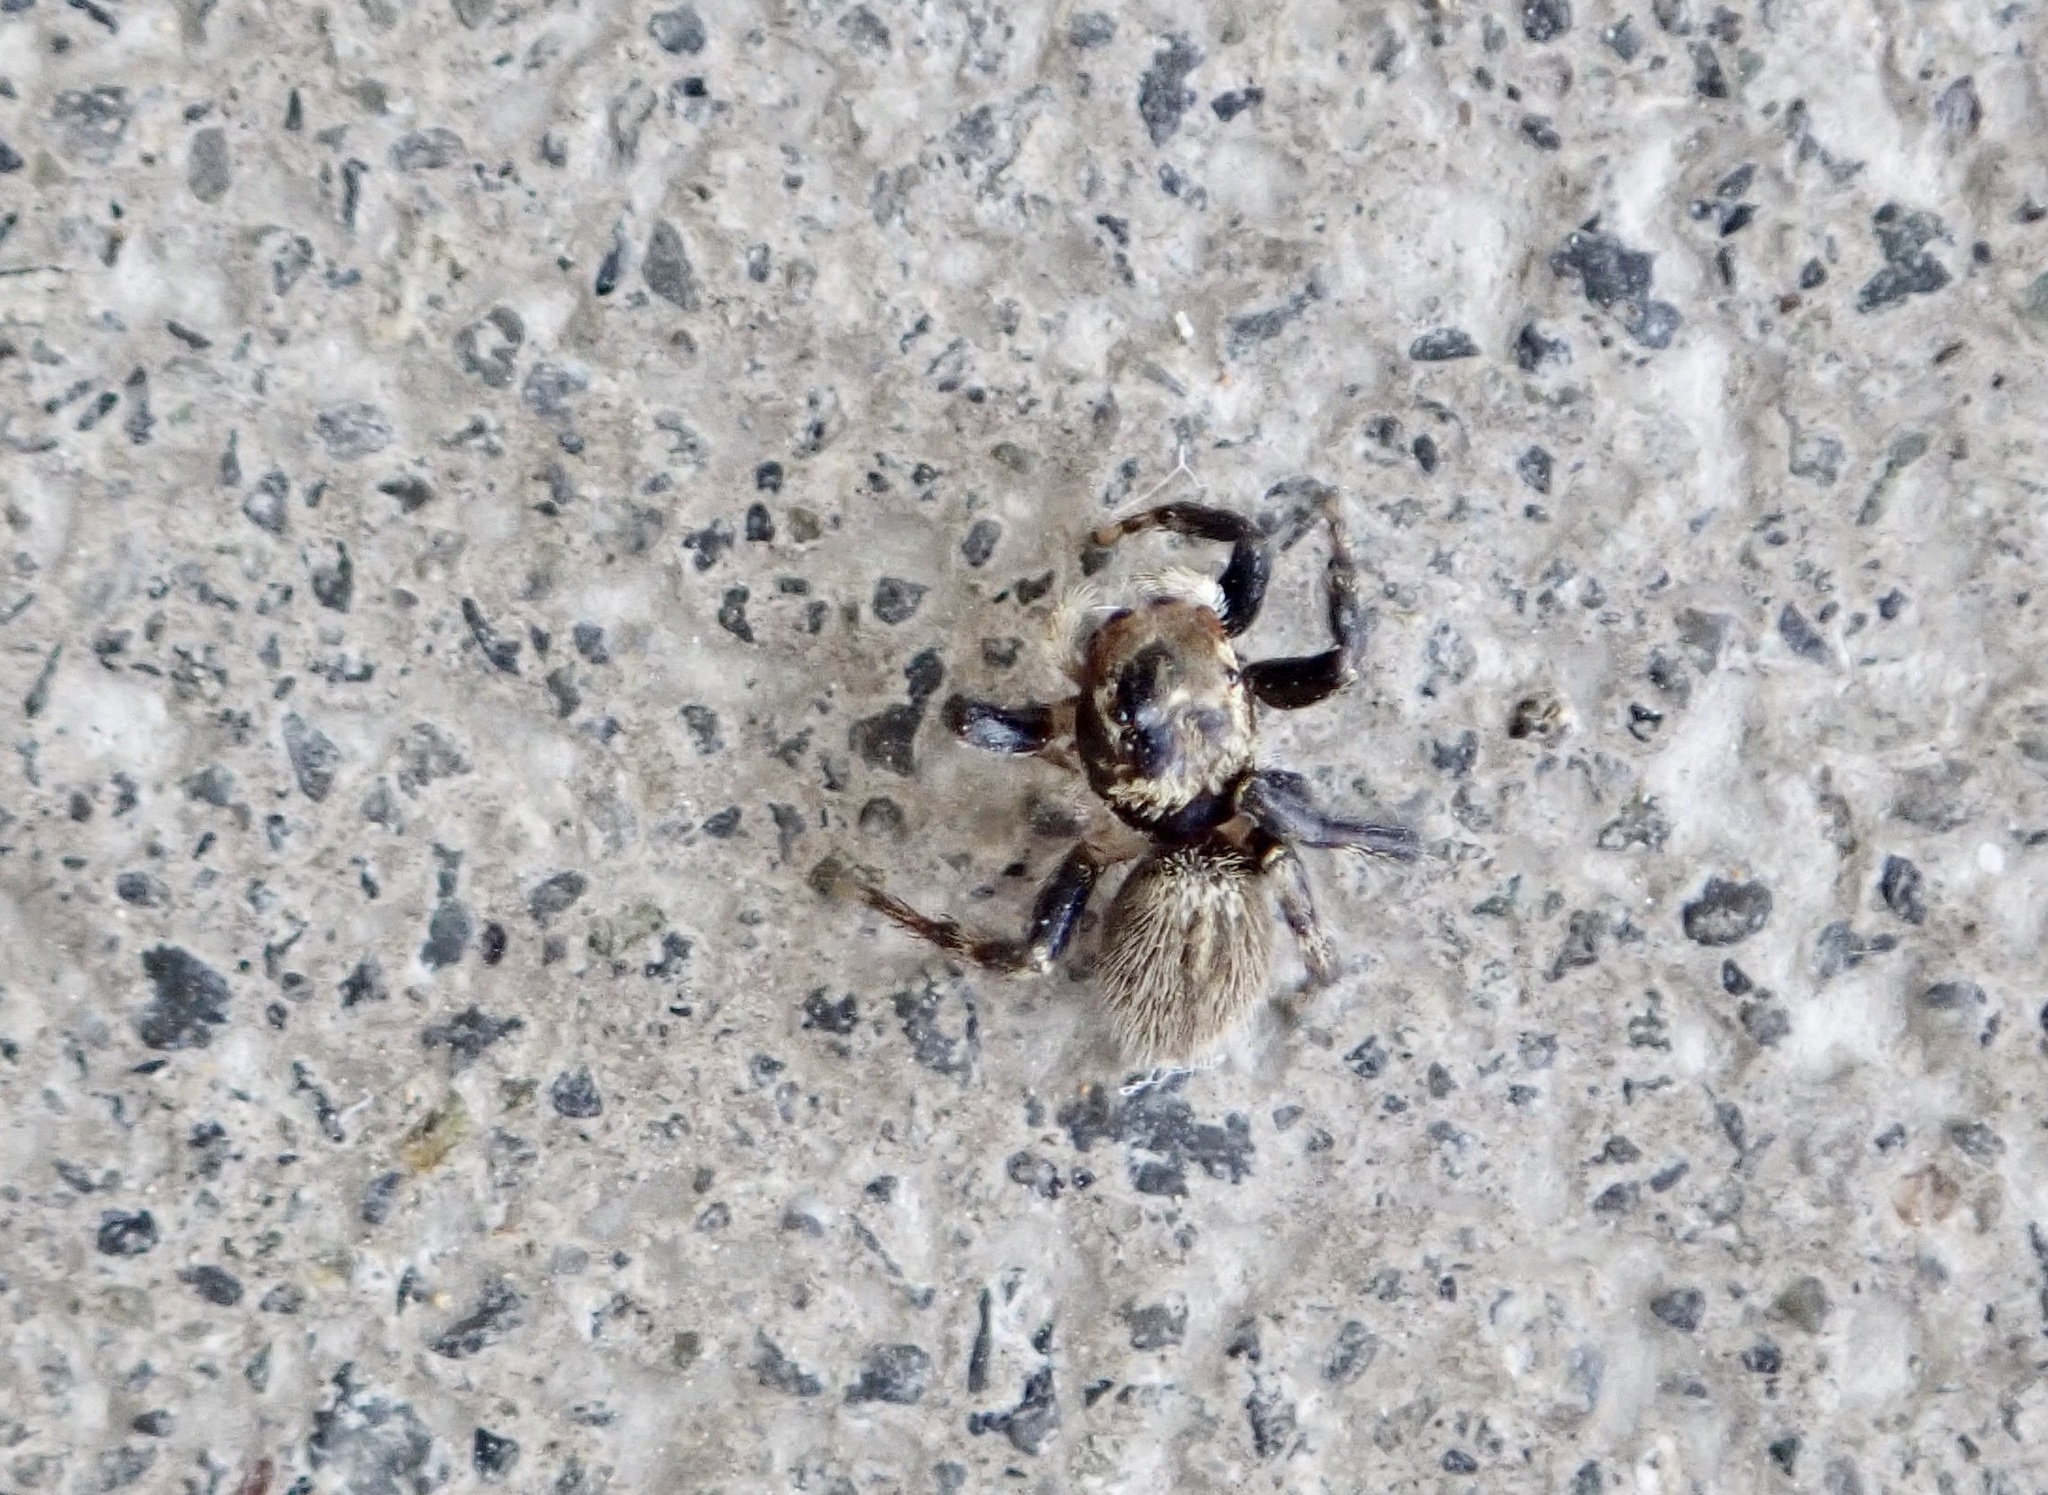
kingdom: Animalia
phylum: Arthropoda
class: Arachnida
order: Araneae
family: Salticidae
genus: Maratus
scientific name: Maratus griseus
